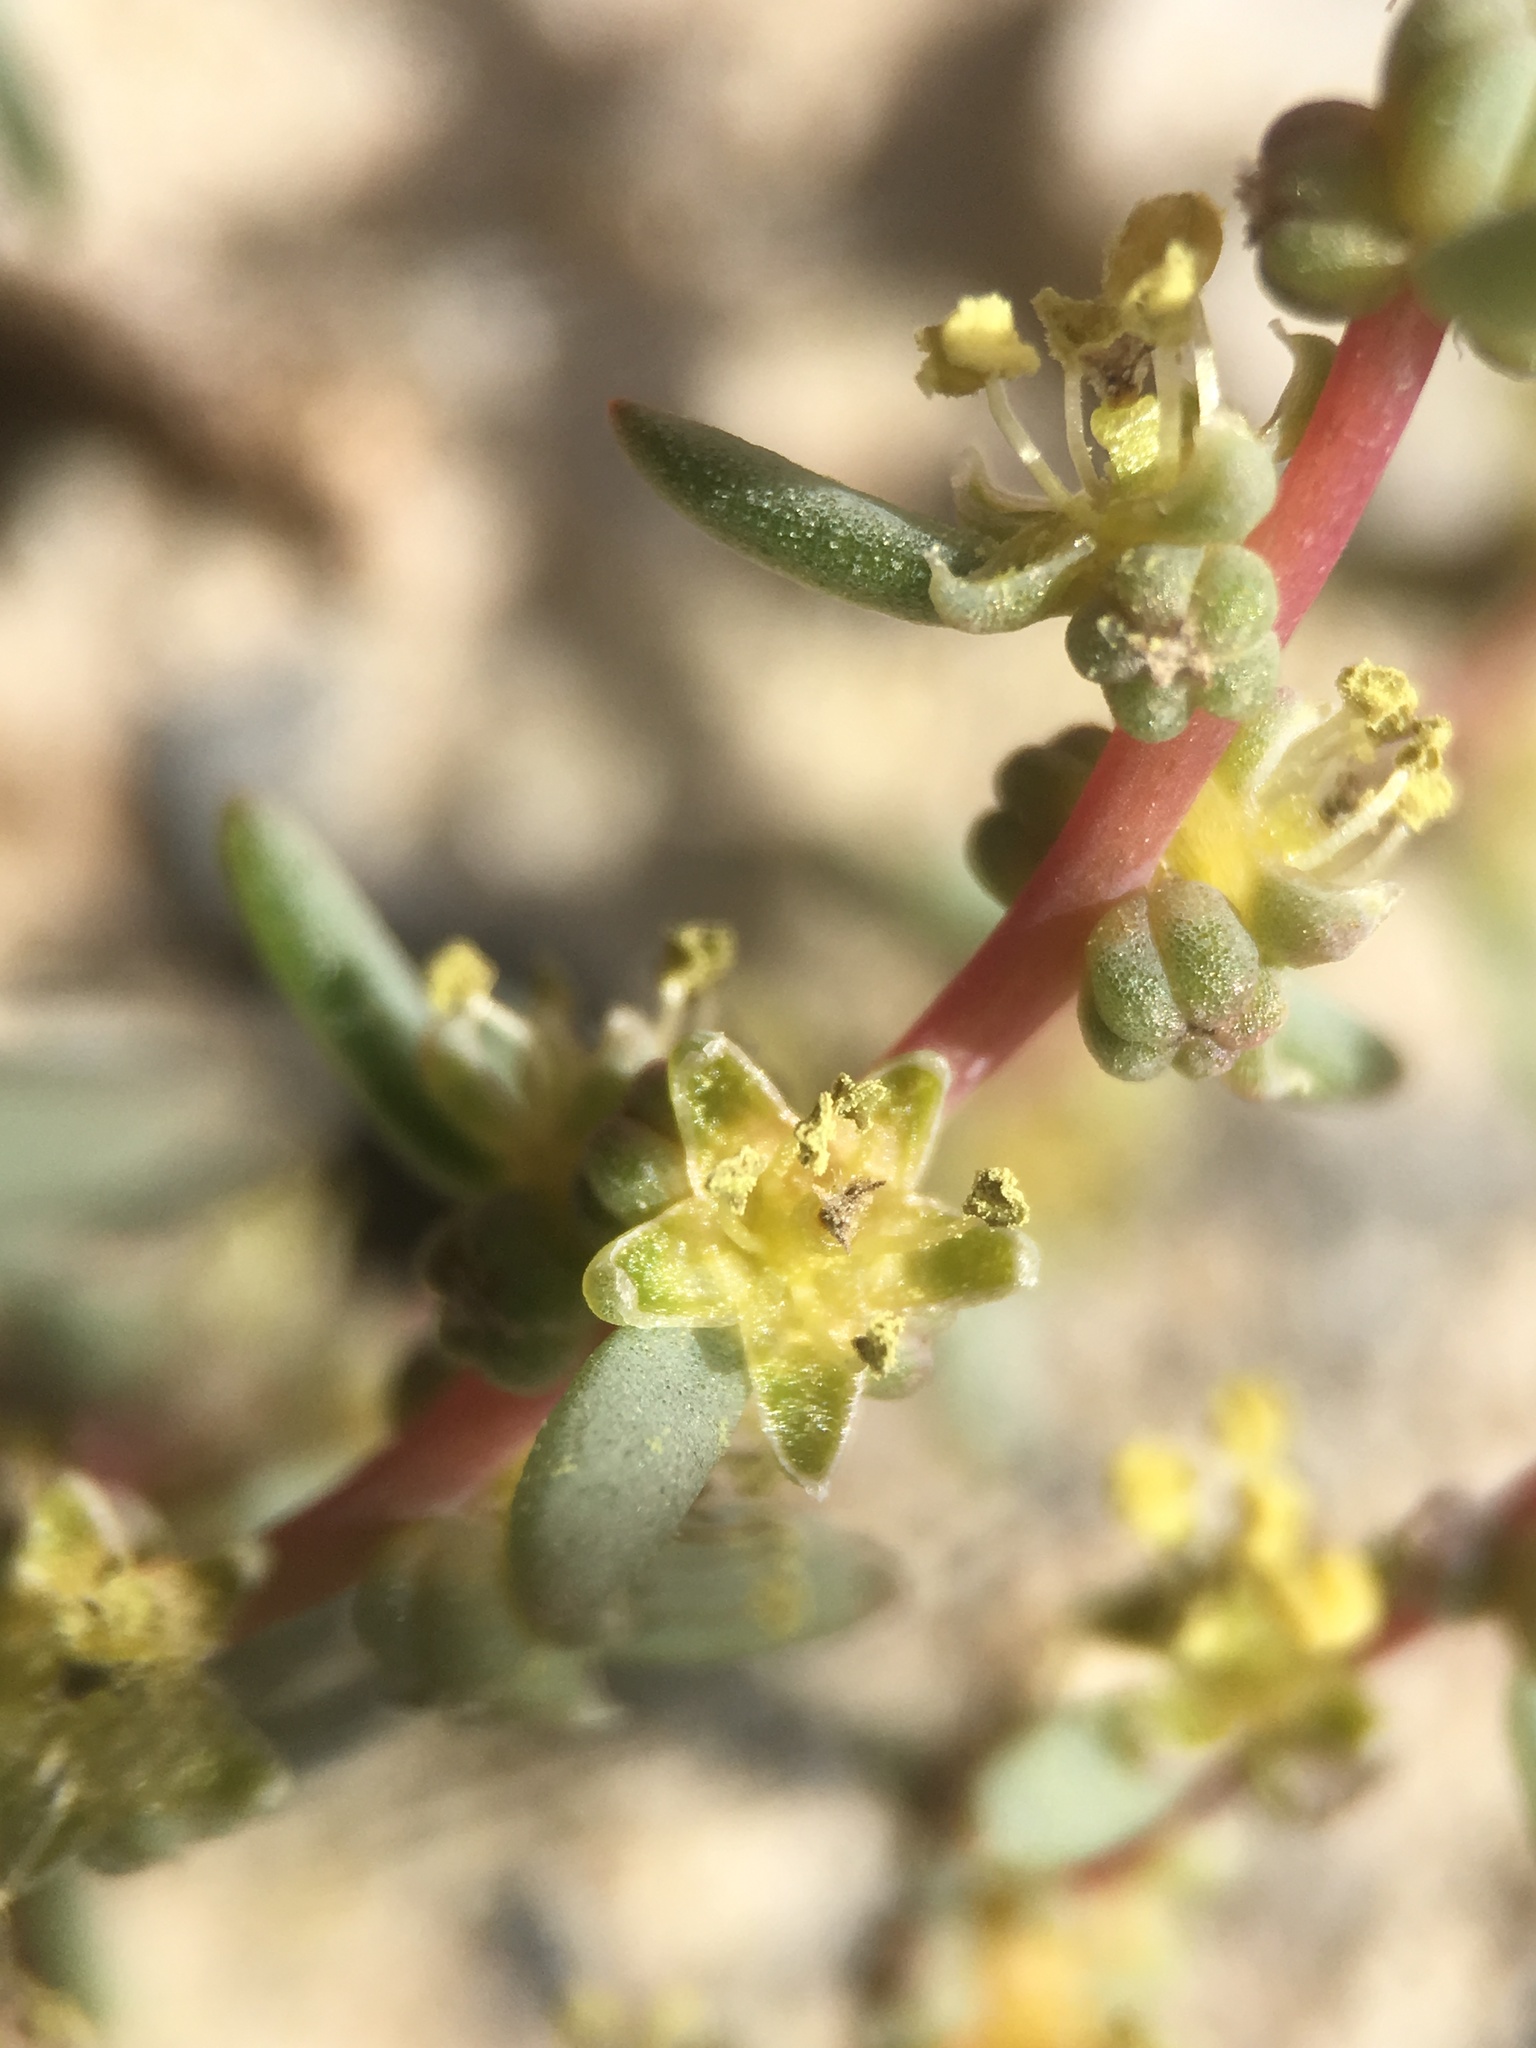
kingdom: Plantae
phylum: Tracheophyta
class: Magnoliopsida
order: Caryophyllales
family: Amaranthaceae
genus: Suaeda
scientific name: Suaeda nigra
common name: Bush seepweed
